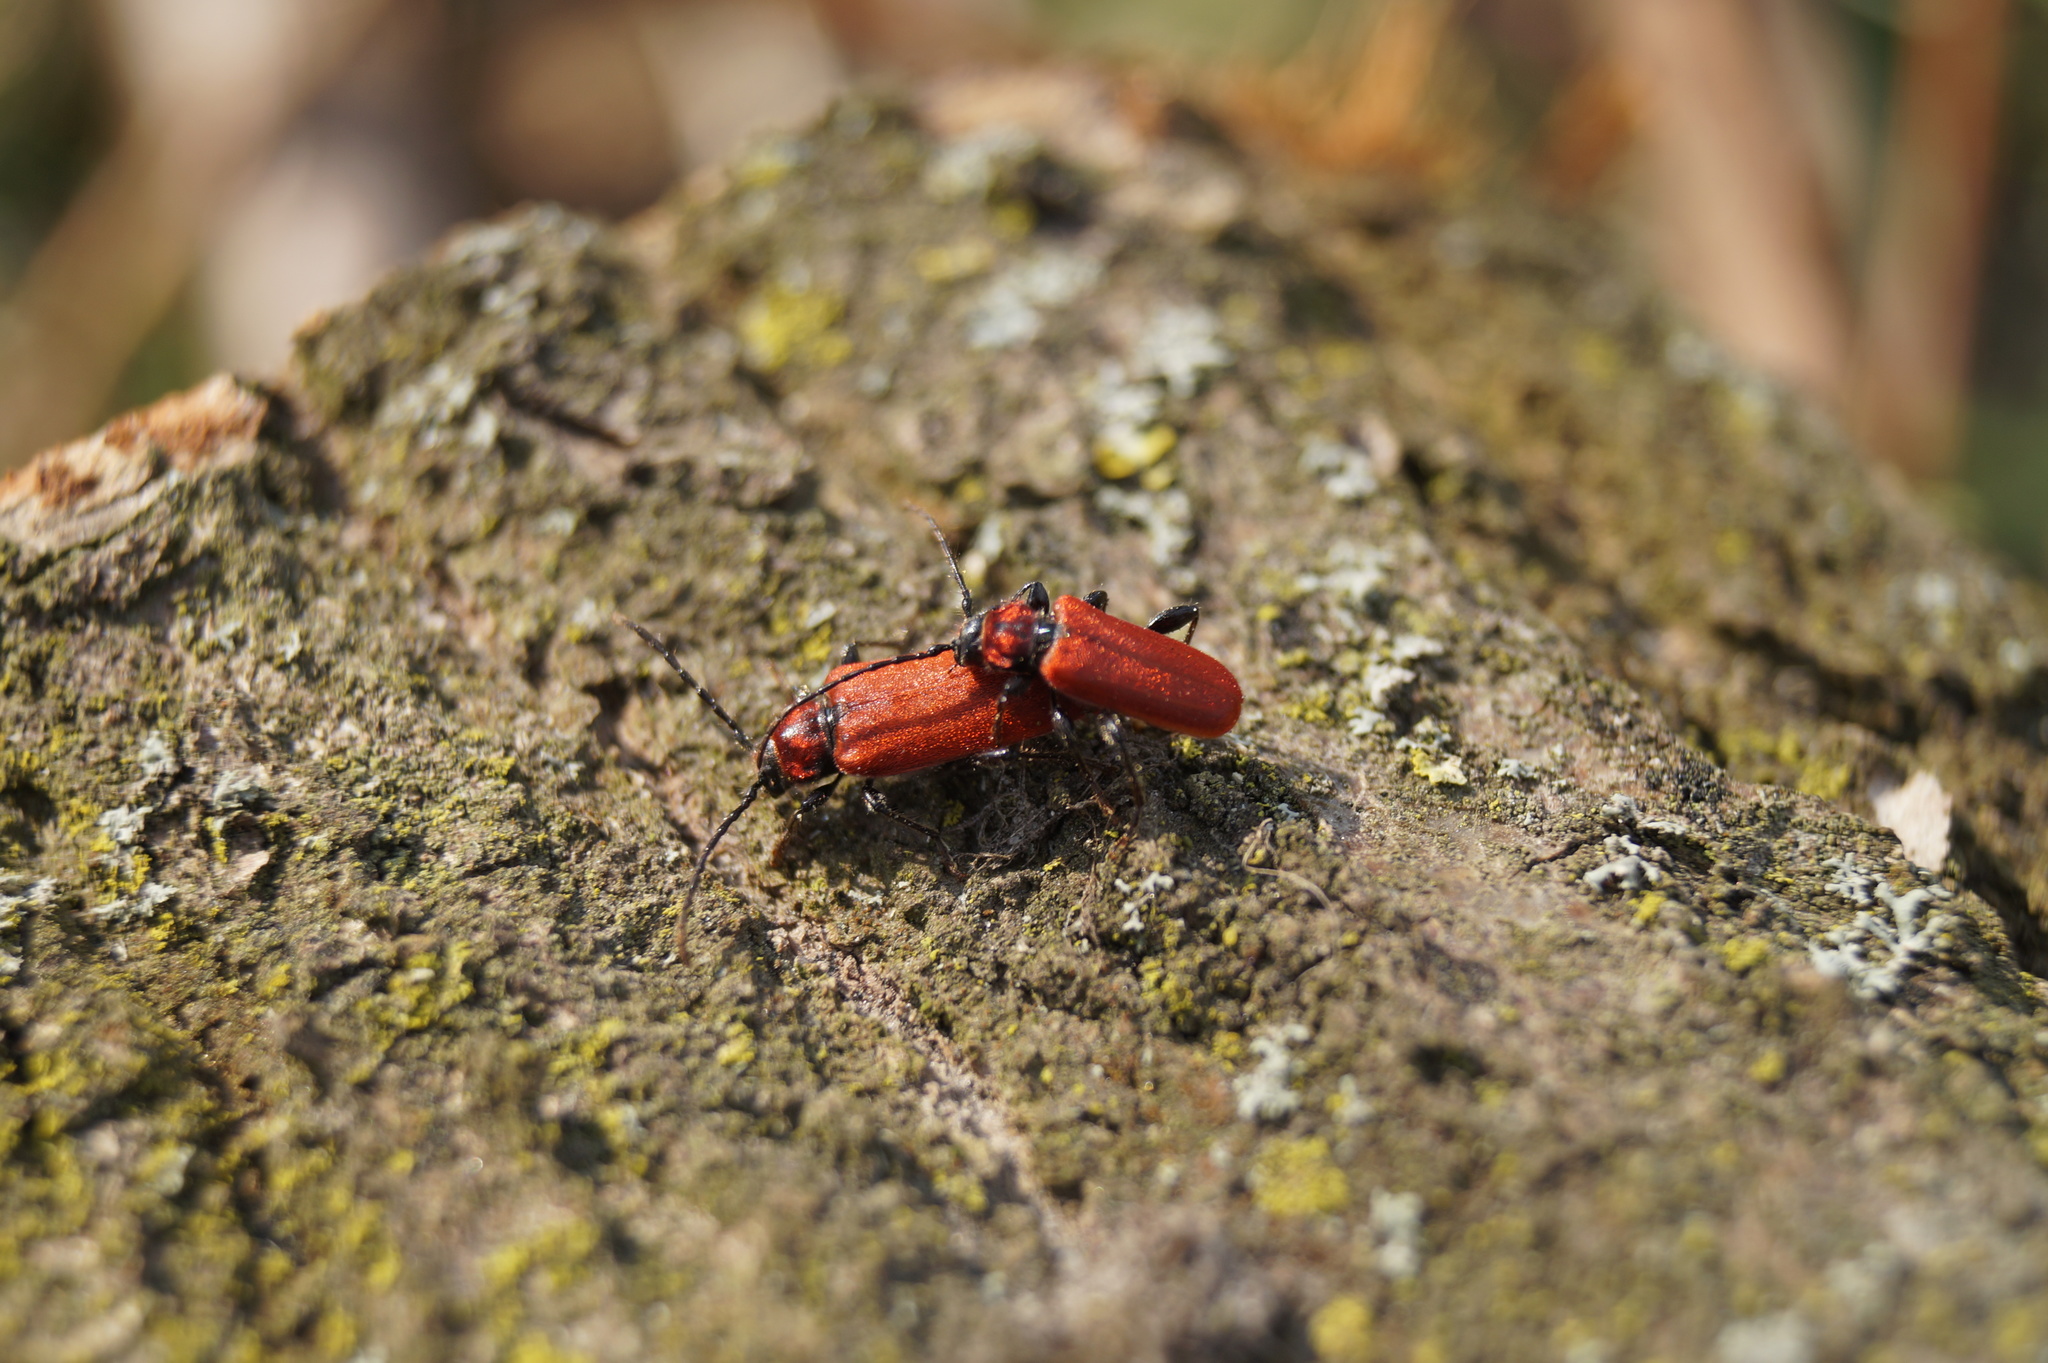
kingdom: Animalia
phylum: Arthropoda
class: Insecta
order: Coleoptera
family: Cerambycidae
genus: Pyrrhidium
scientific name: Pyrrhidium sanguineum
